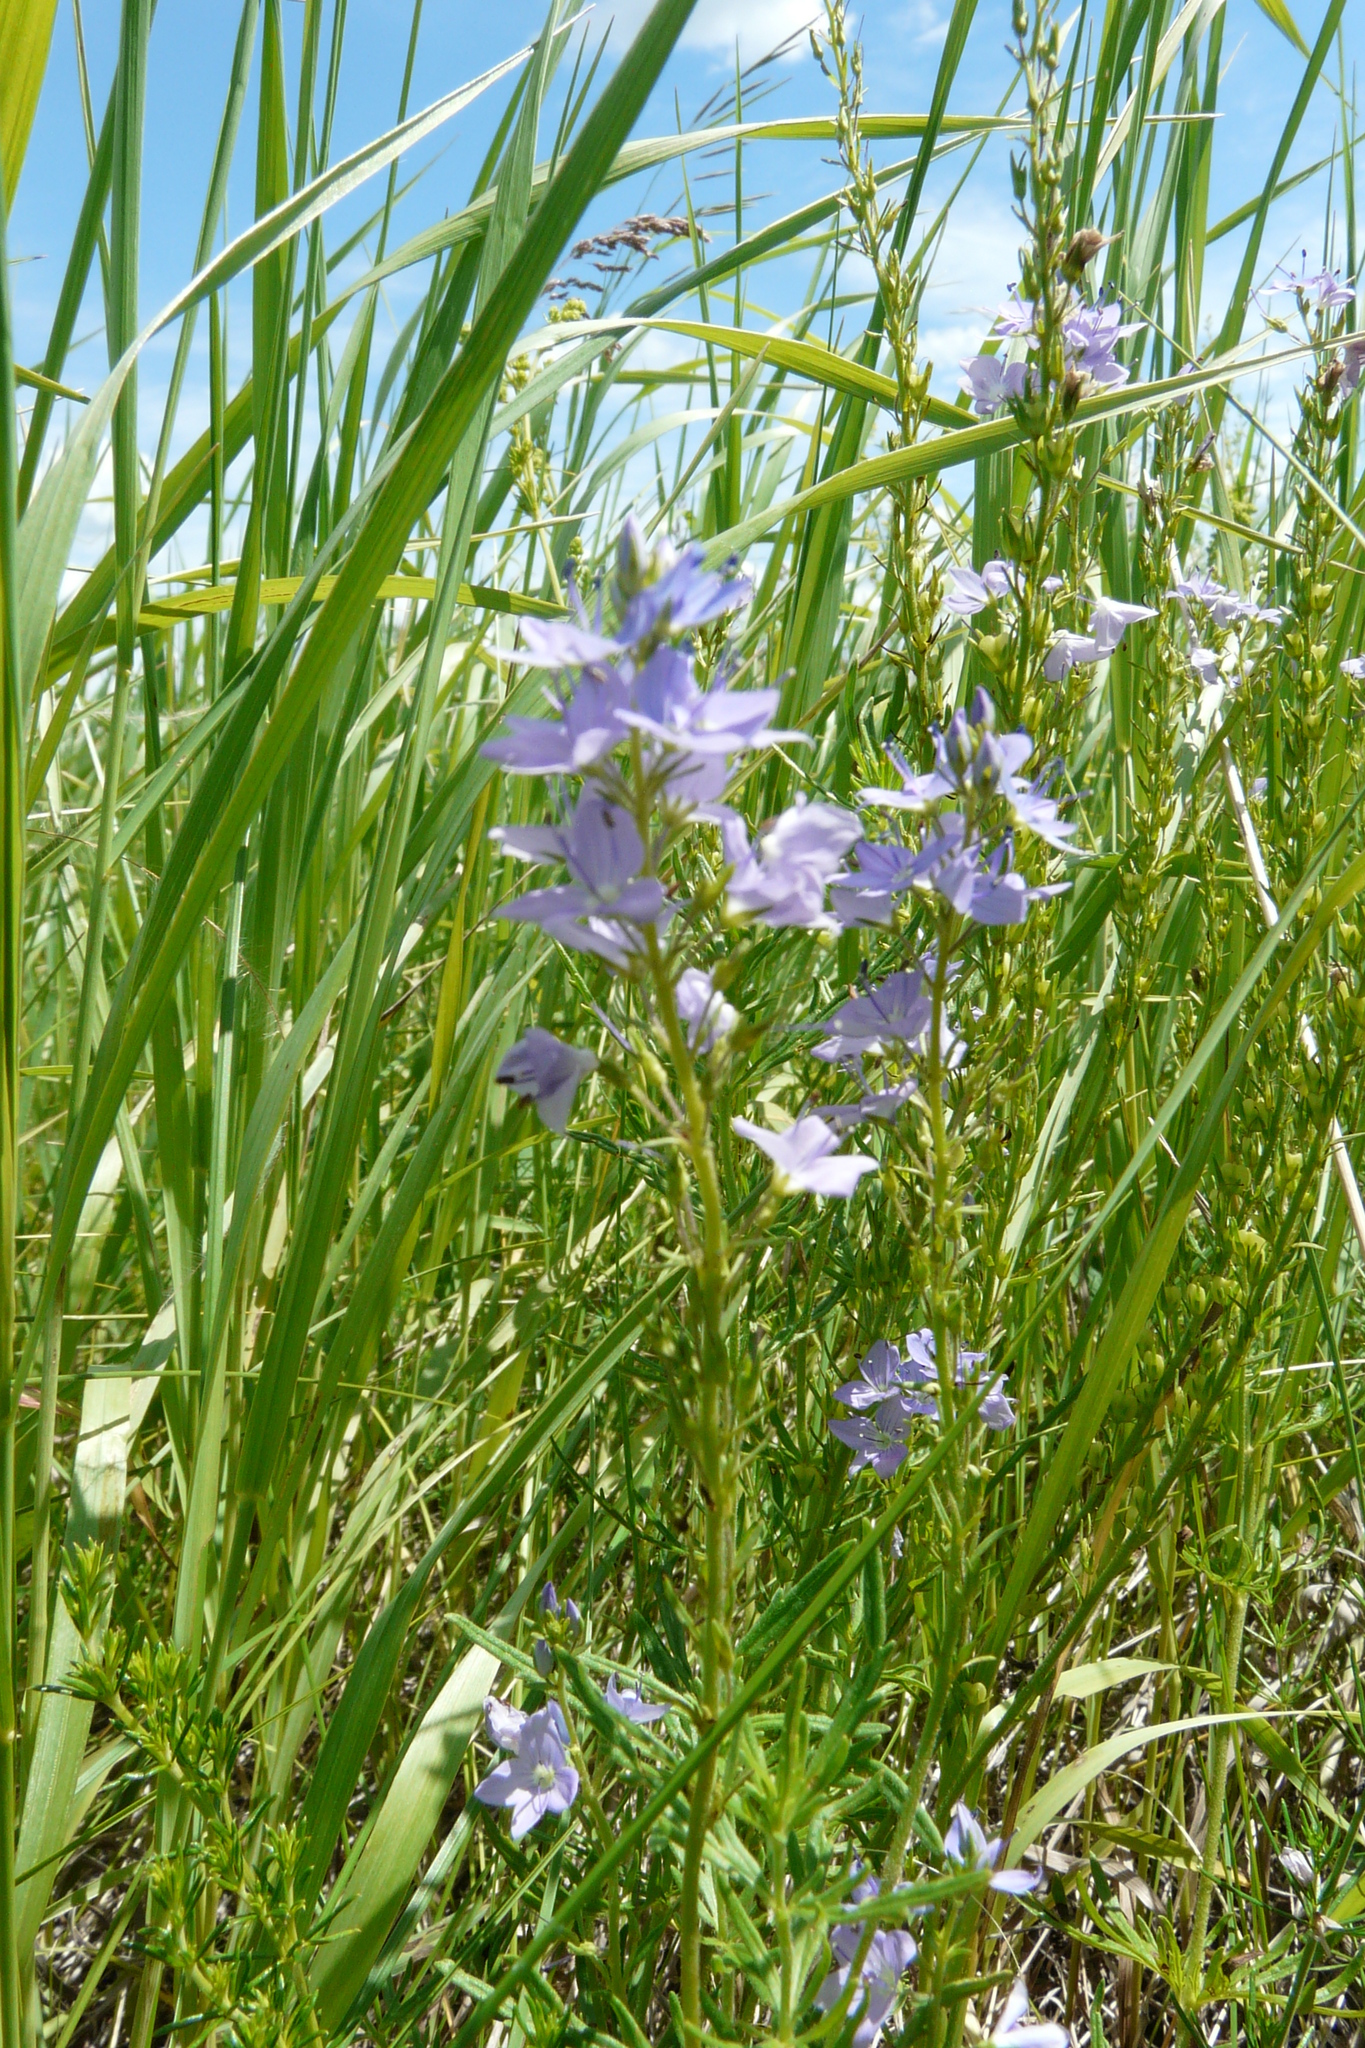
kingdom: Plantae
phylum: Tracheophyta
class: Magnoliopsida
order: Lamiales
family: Plantaginaceae
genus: Veronica
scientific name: Veronica austriaca
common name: Large speedwell
